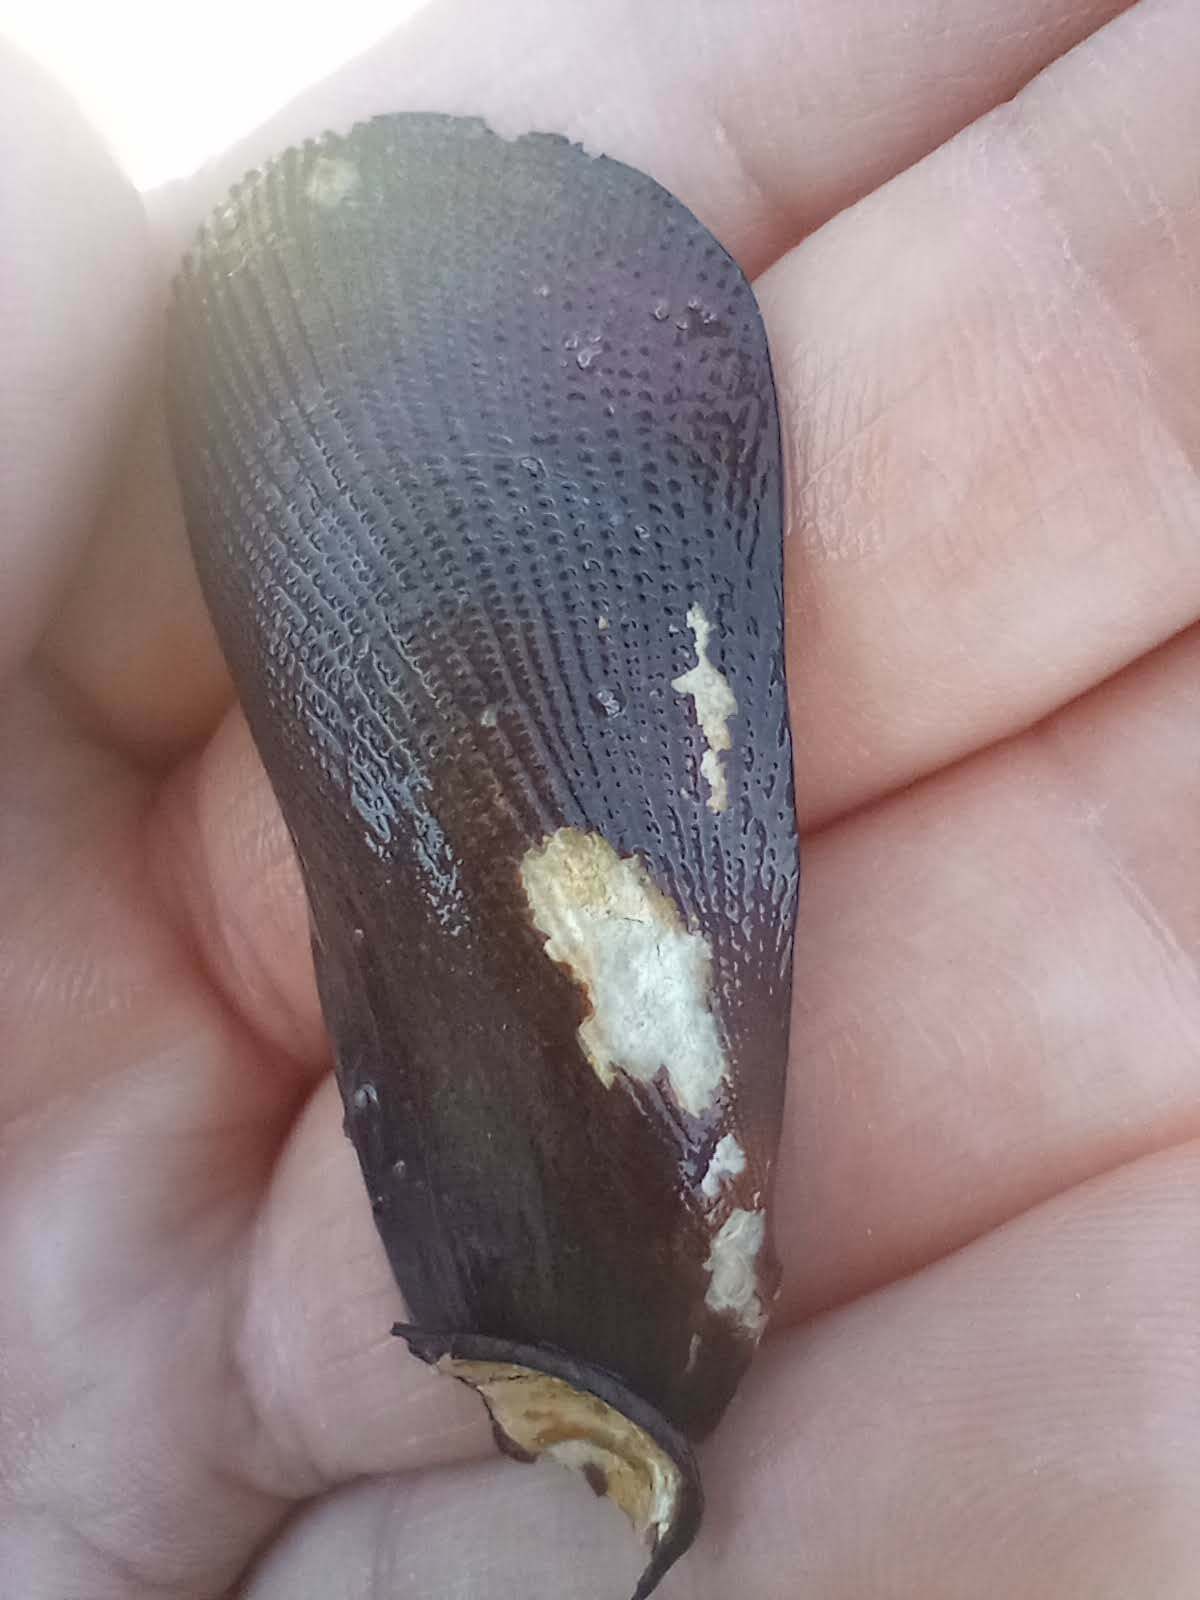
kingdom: Animalia
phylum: Mollusca
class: Bivalvia
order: Mytilida
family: Mytilidae
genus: Geukensia
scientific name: Geukensia granosissima
